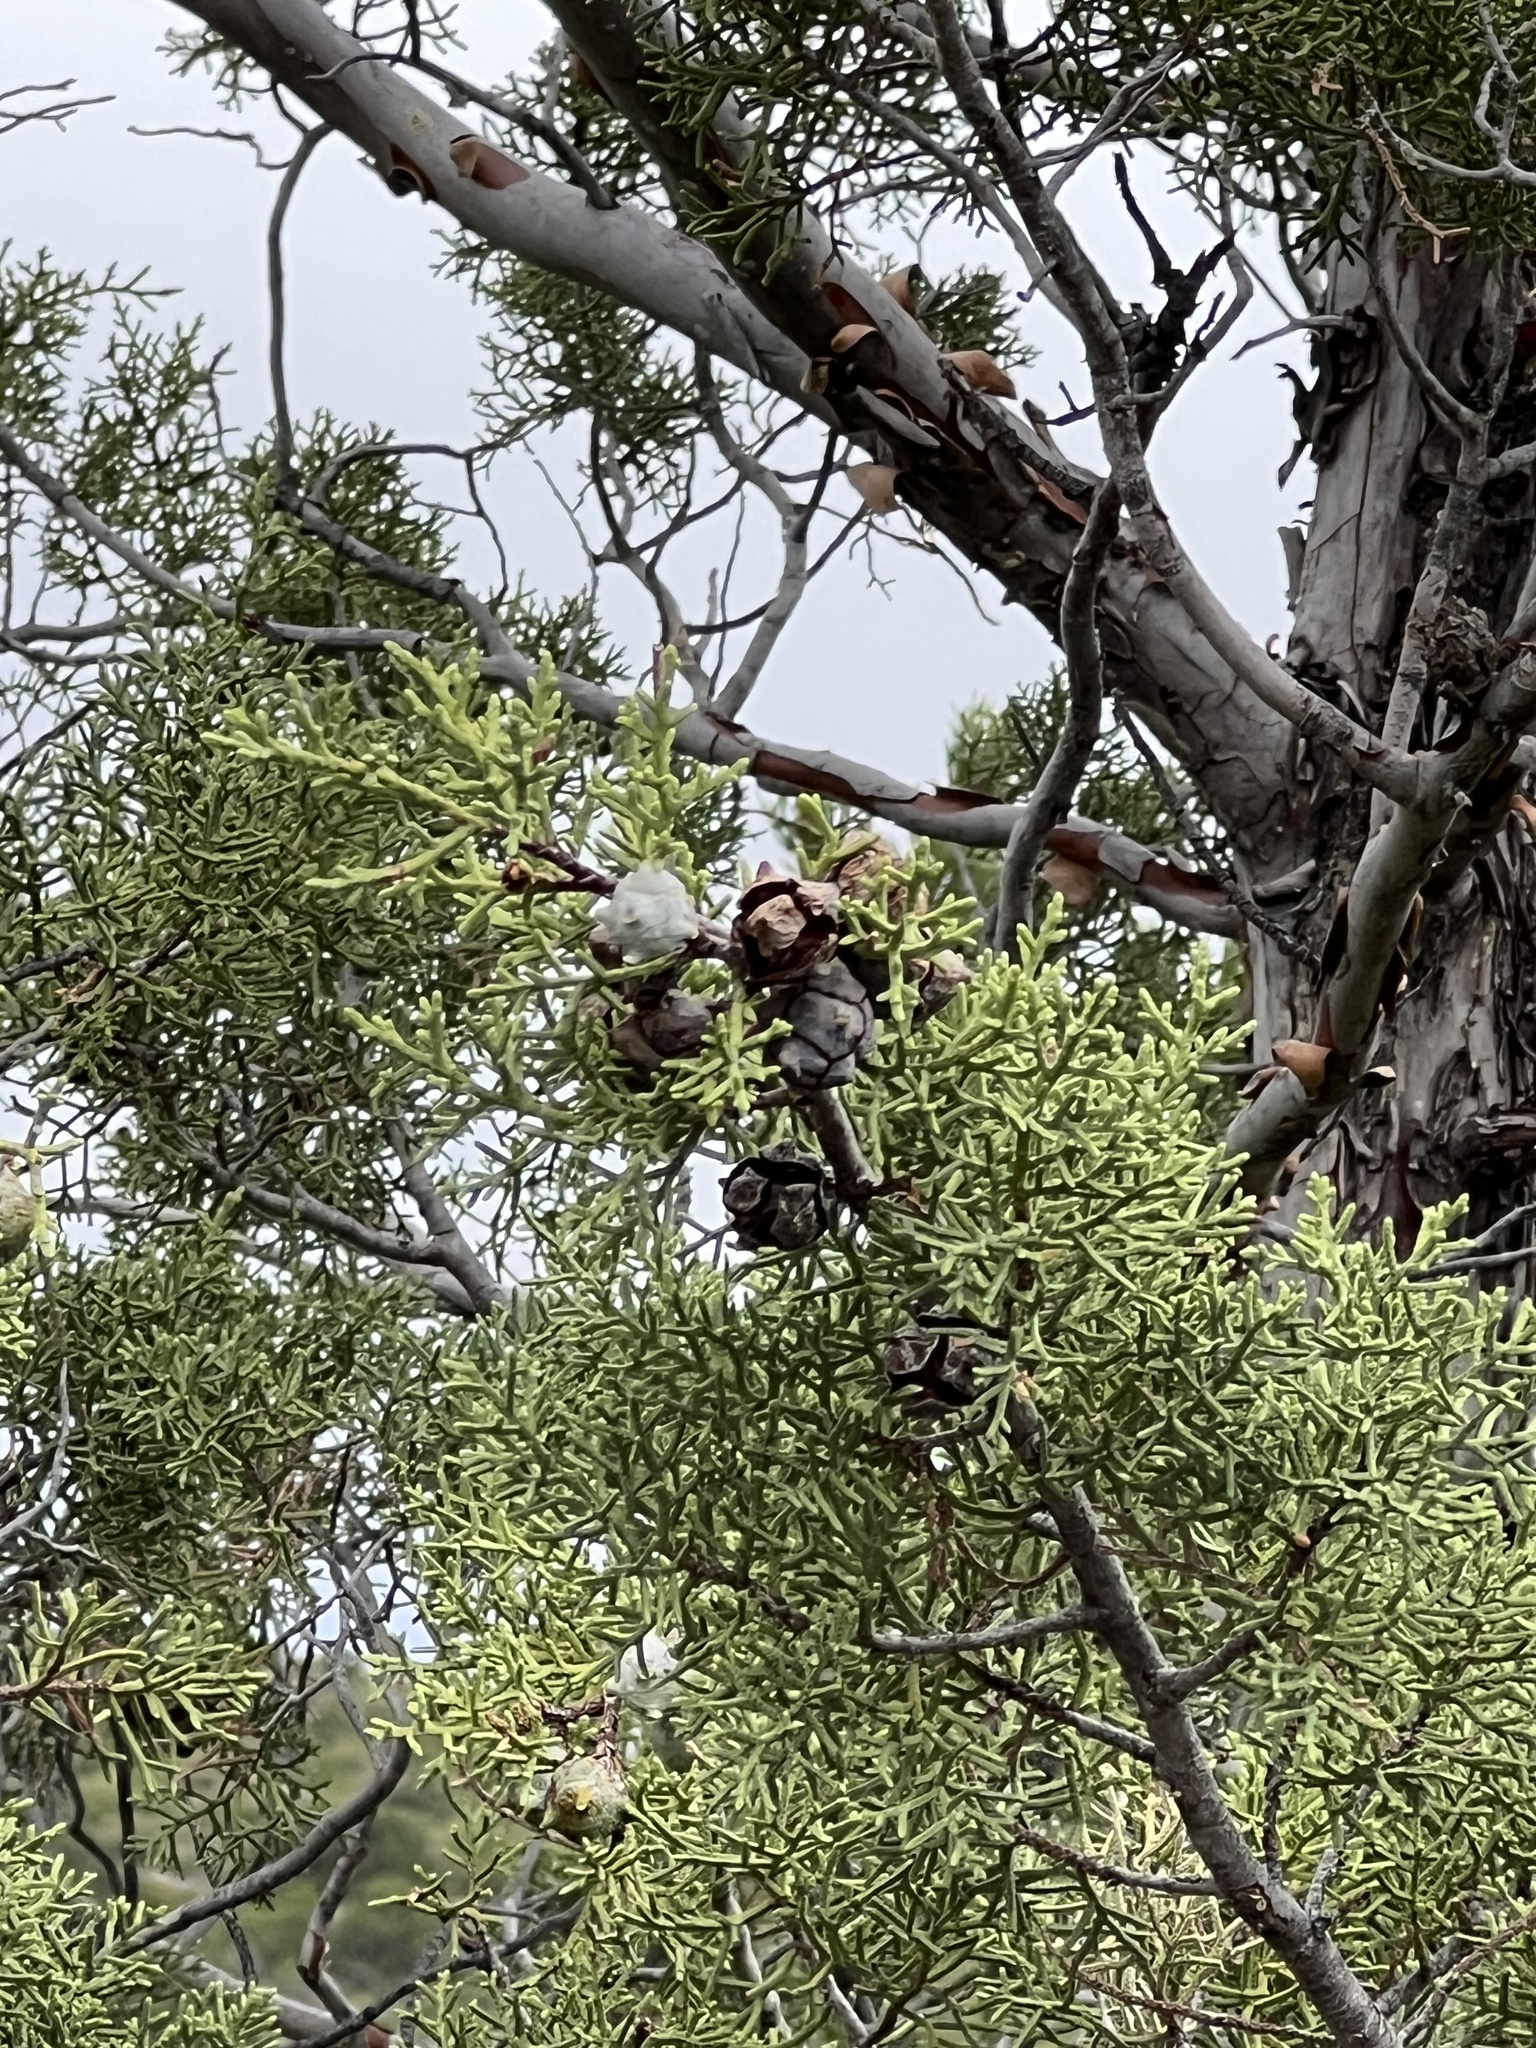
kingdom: Plantae
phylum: Tracheophyta
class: Pinopsida
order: Pinales
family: Cupressaceae
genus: Cupressus
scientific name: Cupressus arizonica
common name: Arizona cypress
